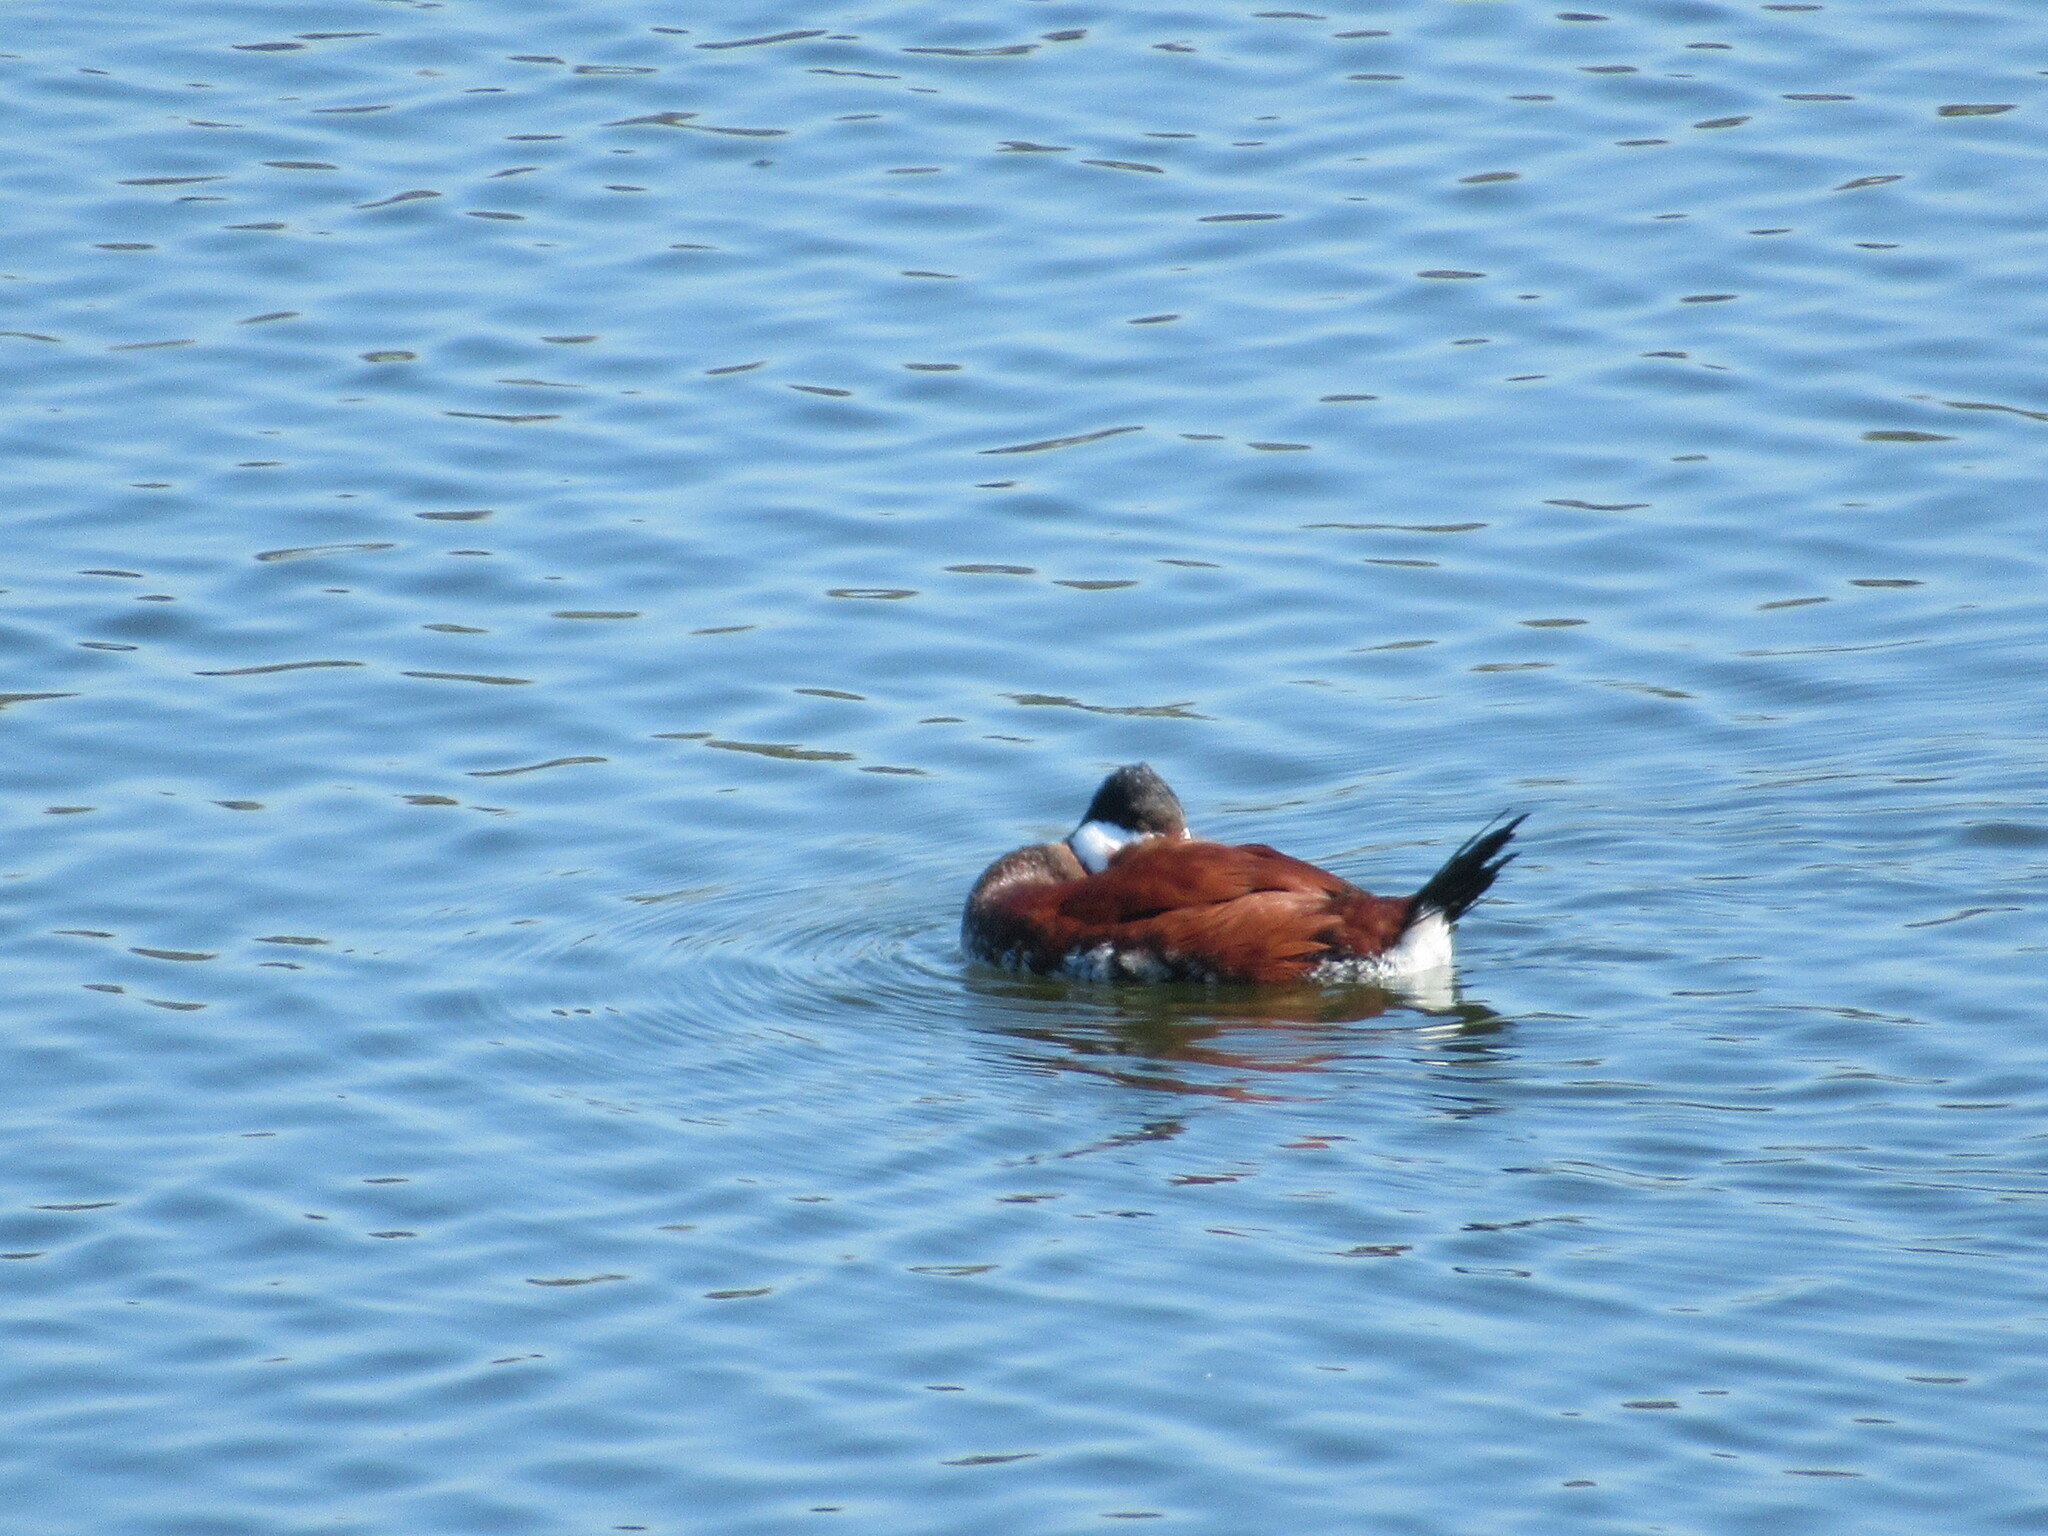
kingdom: Animalia
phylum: Chordata
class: Aves
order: Anseriformes
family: Anatidae
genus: Oxyura
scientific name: Oxyura jamaicensis
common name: Ruddy duck
